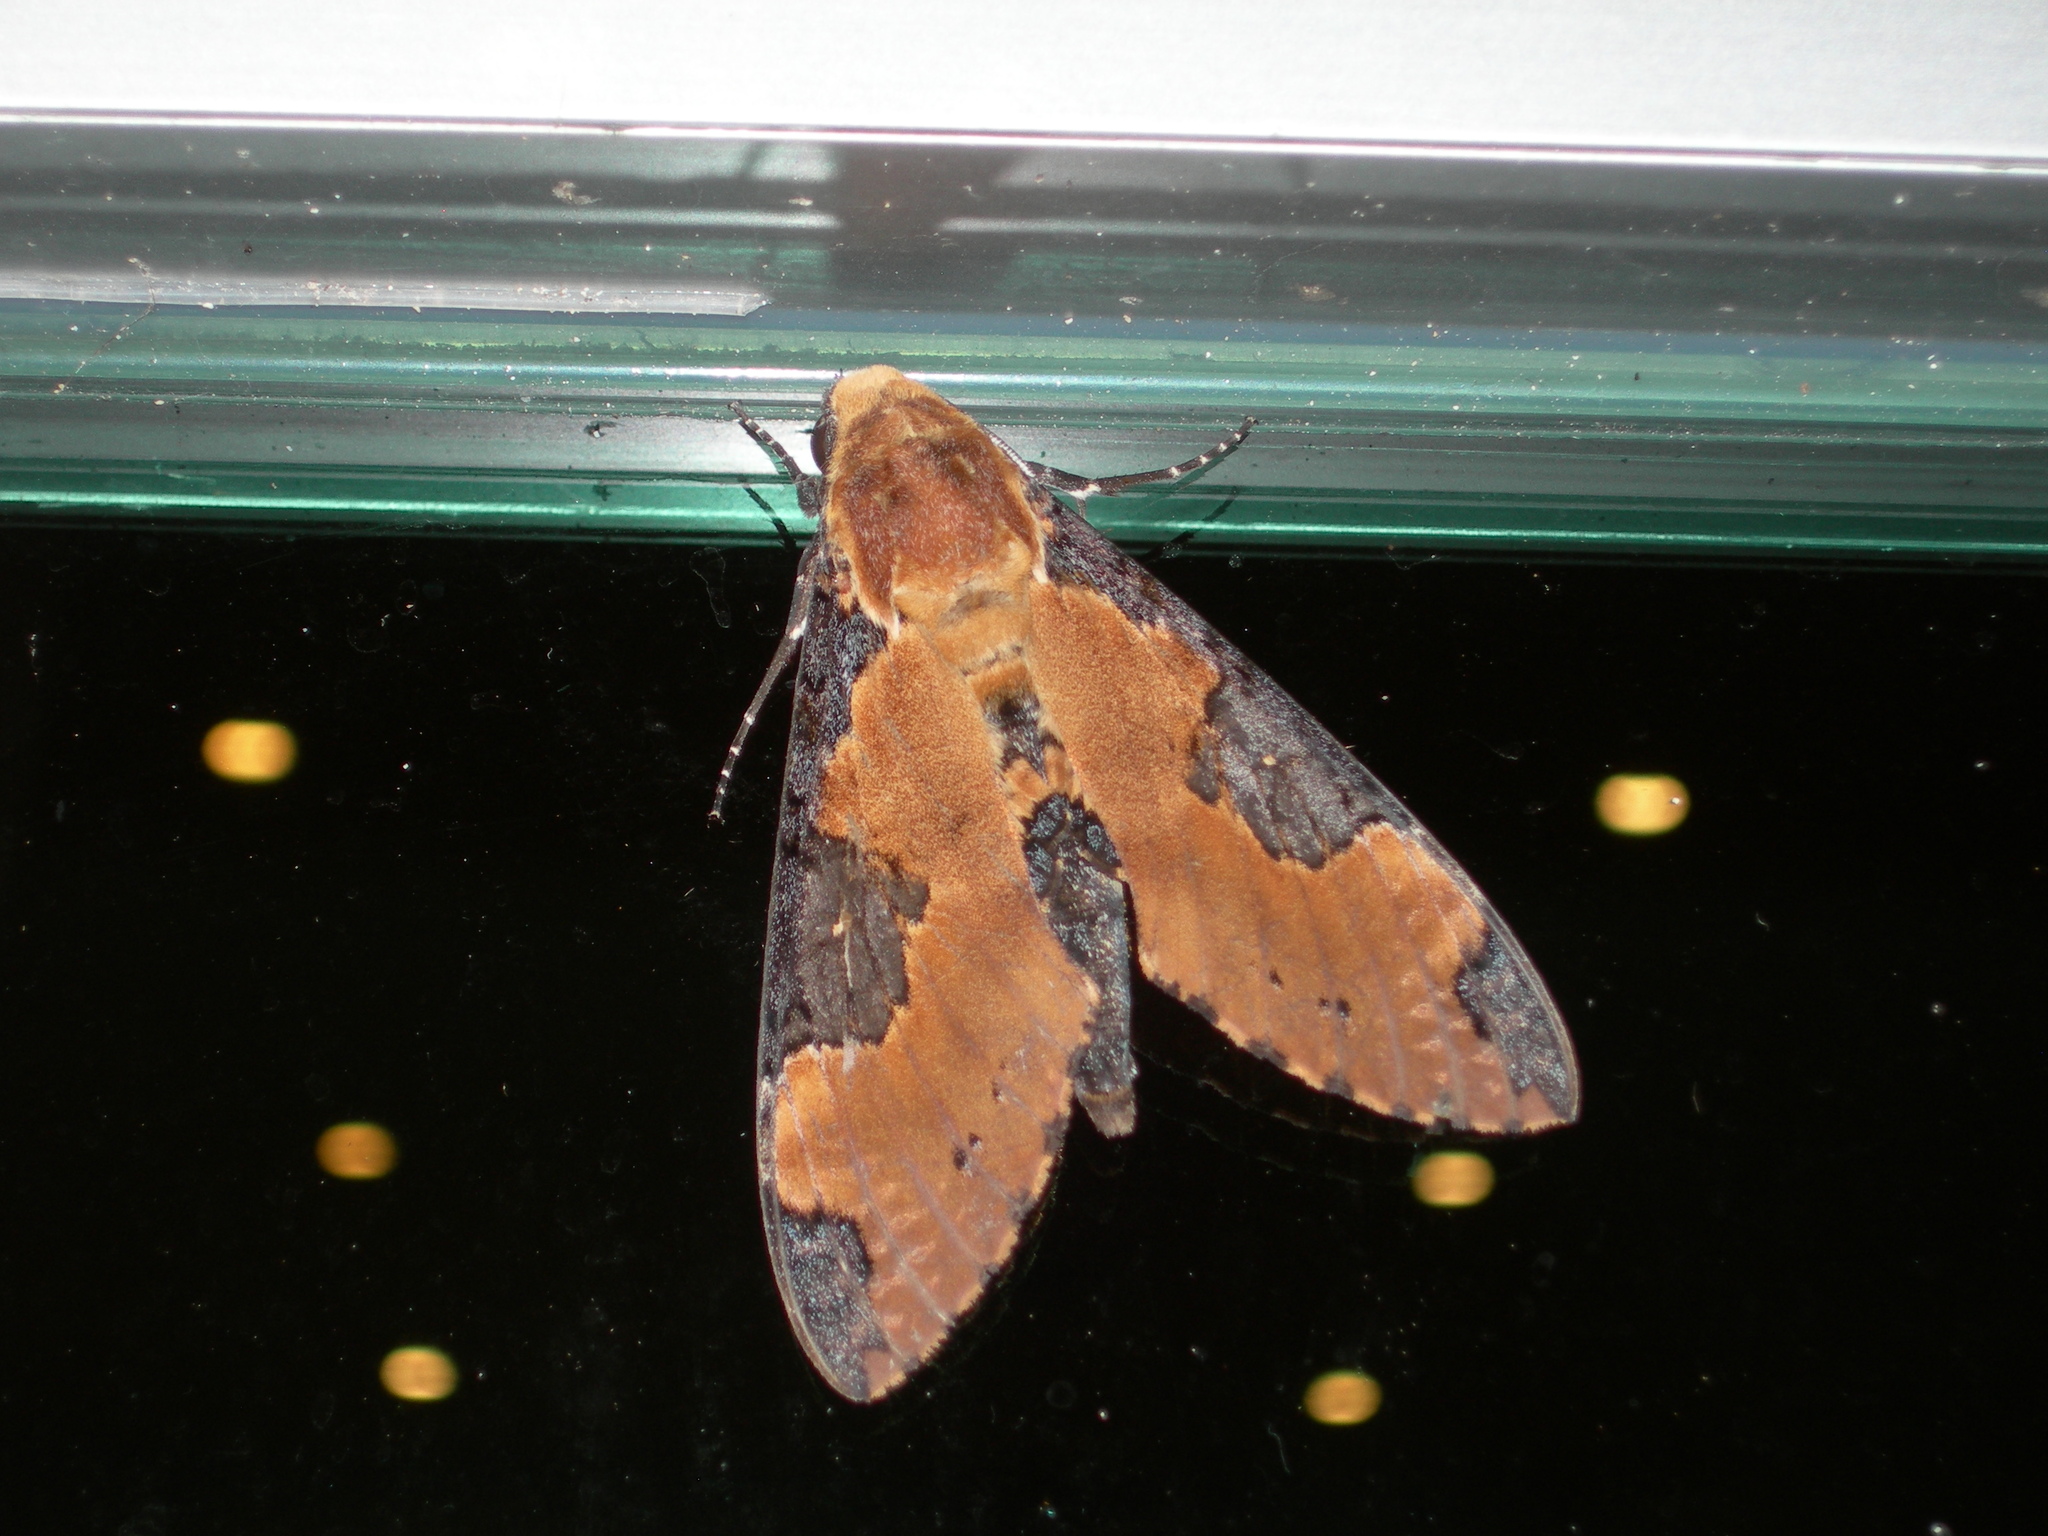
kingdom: Animalia
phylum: Arthropoda
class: Insecta
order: Lepidoptera
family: Sphingidae
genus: Manduca
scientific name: Manduca ochus
